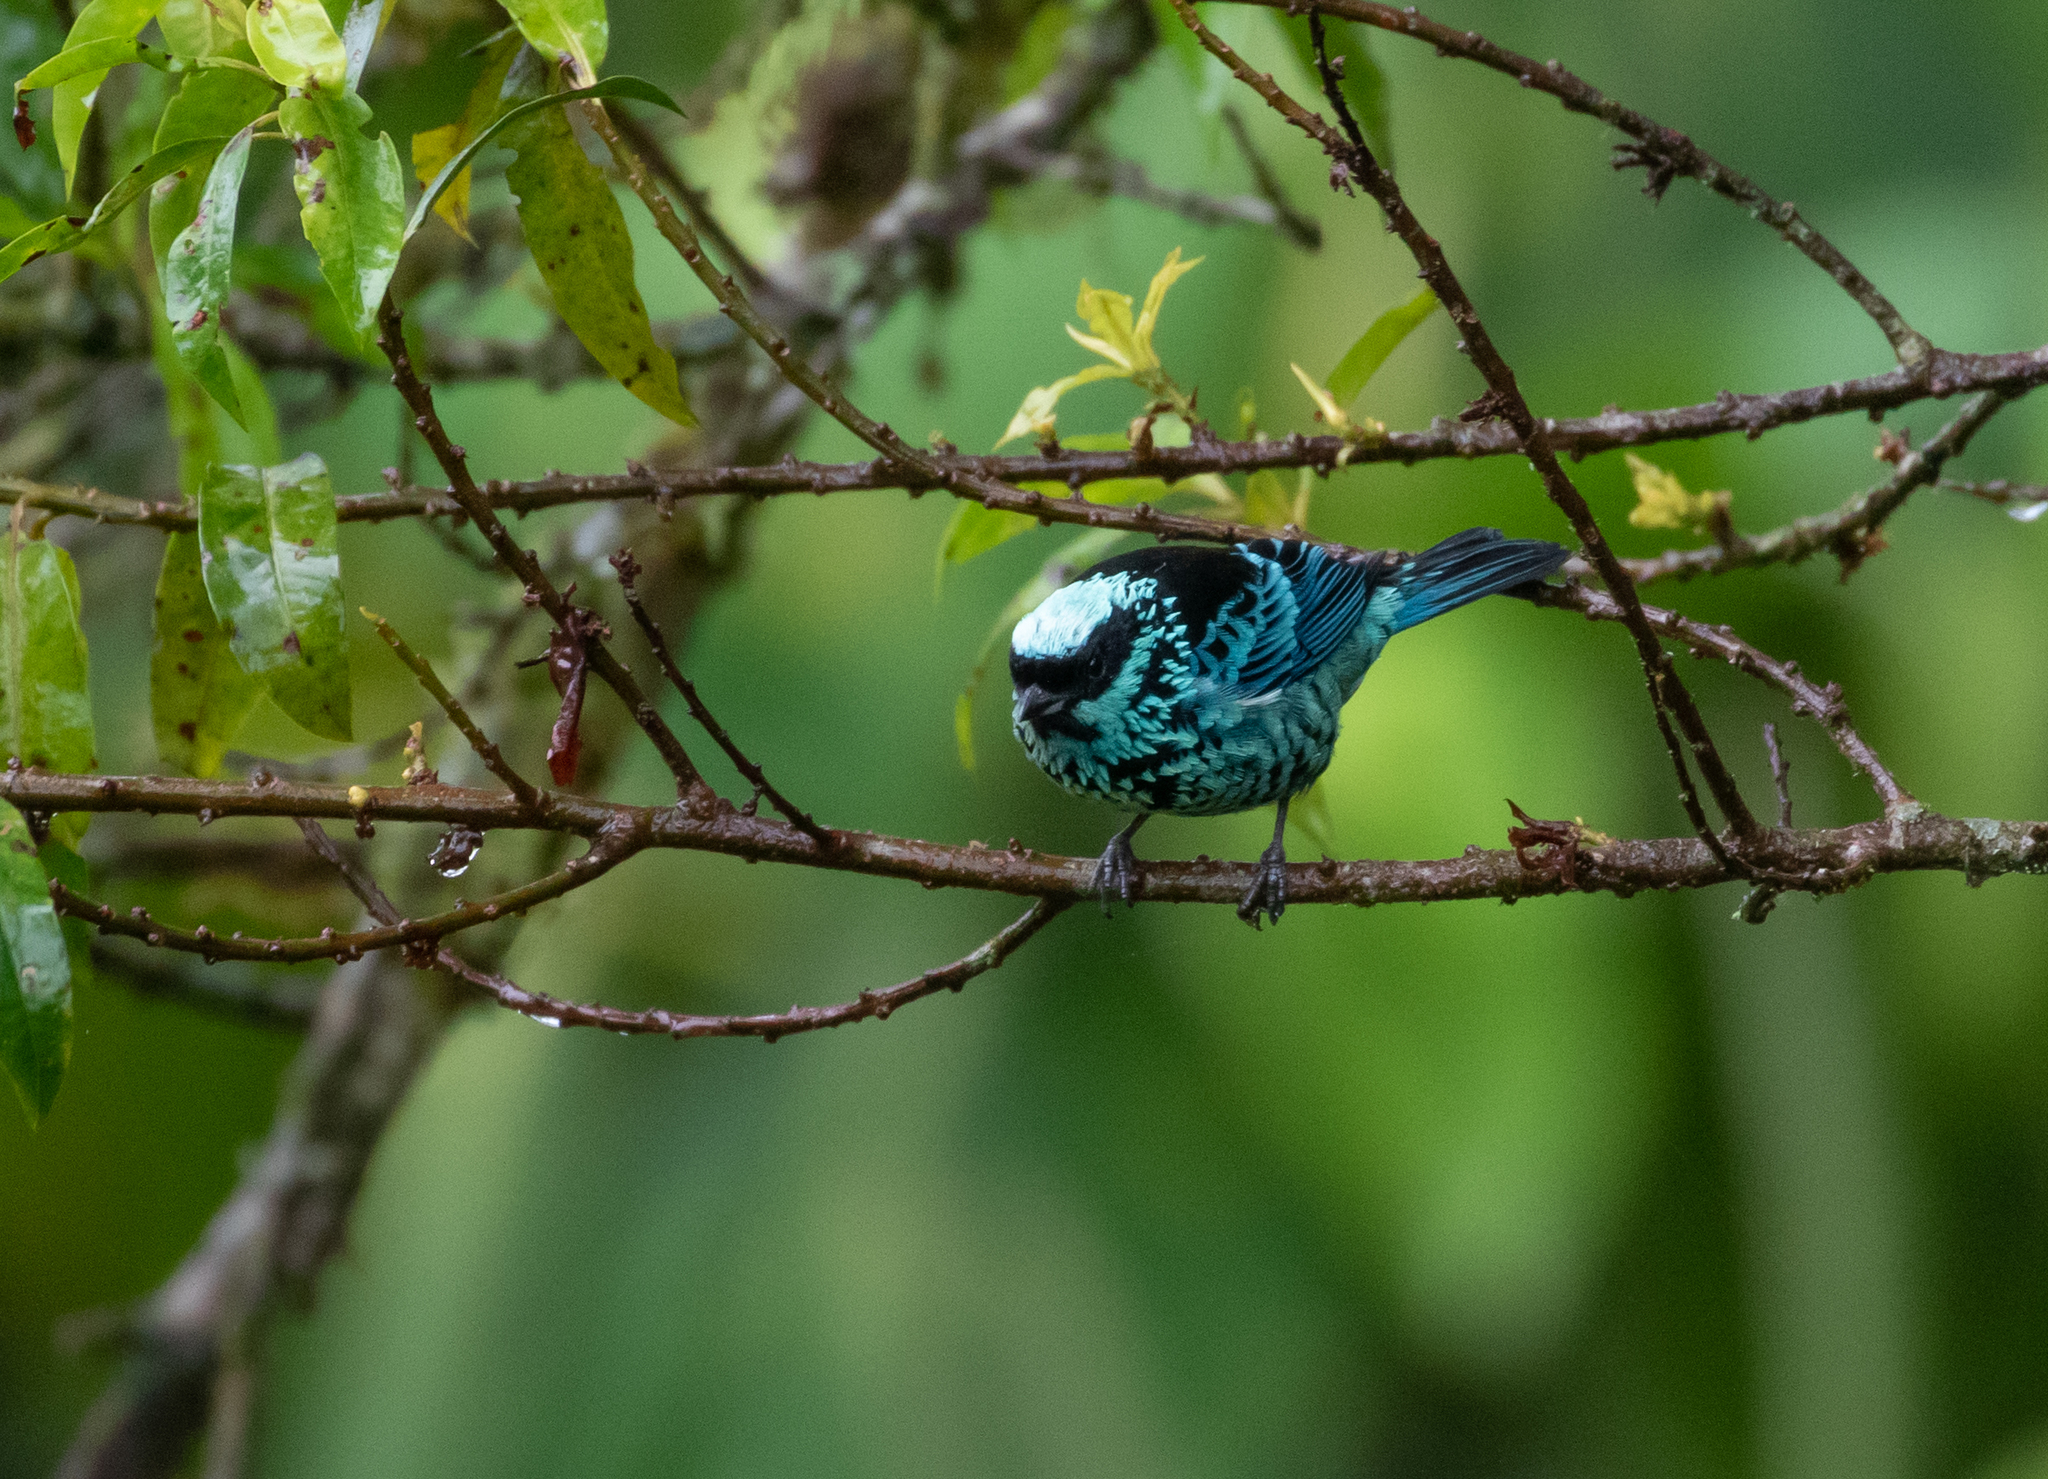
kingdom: Animalia
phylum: Chordata
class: Aves
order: Passeriformes
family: Thraupidae
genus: Tangara
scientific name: Tangara nigroviridis
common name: Beryl-spangled tanager
